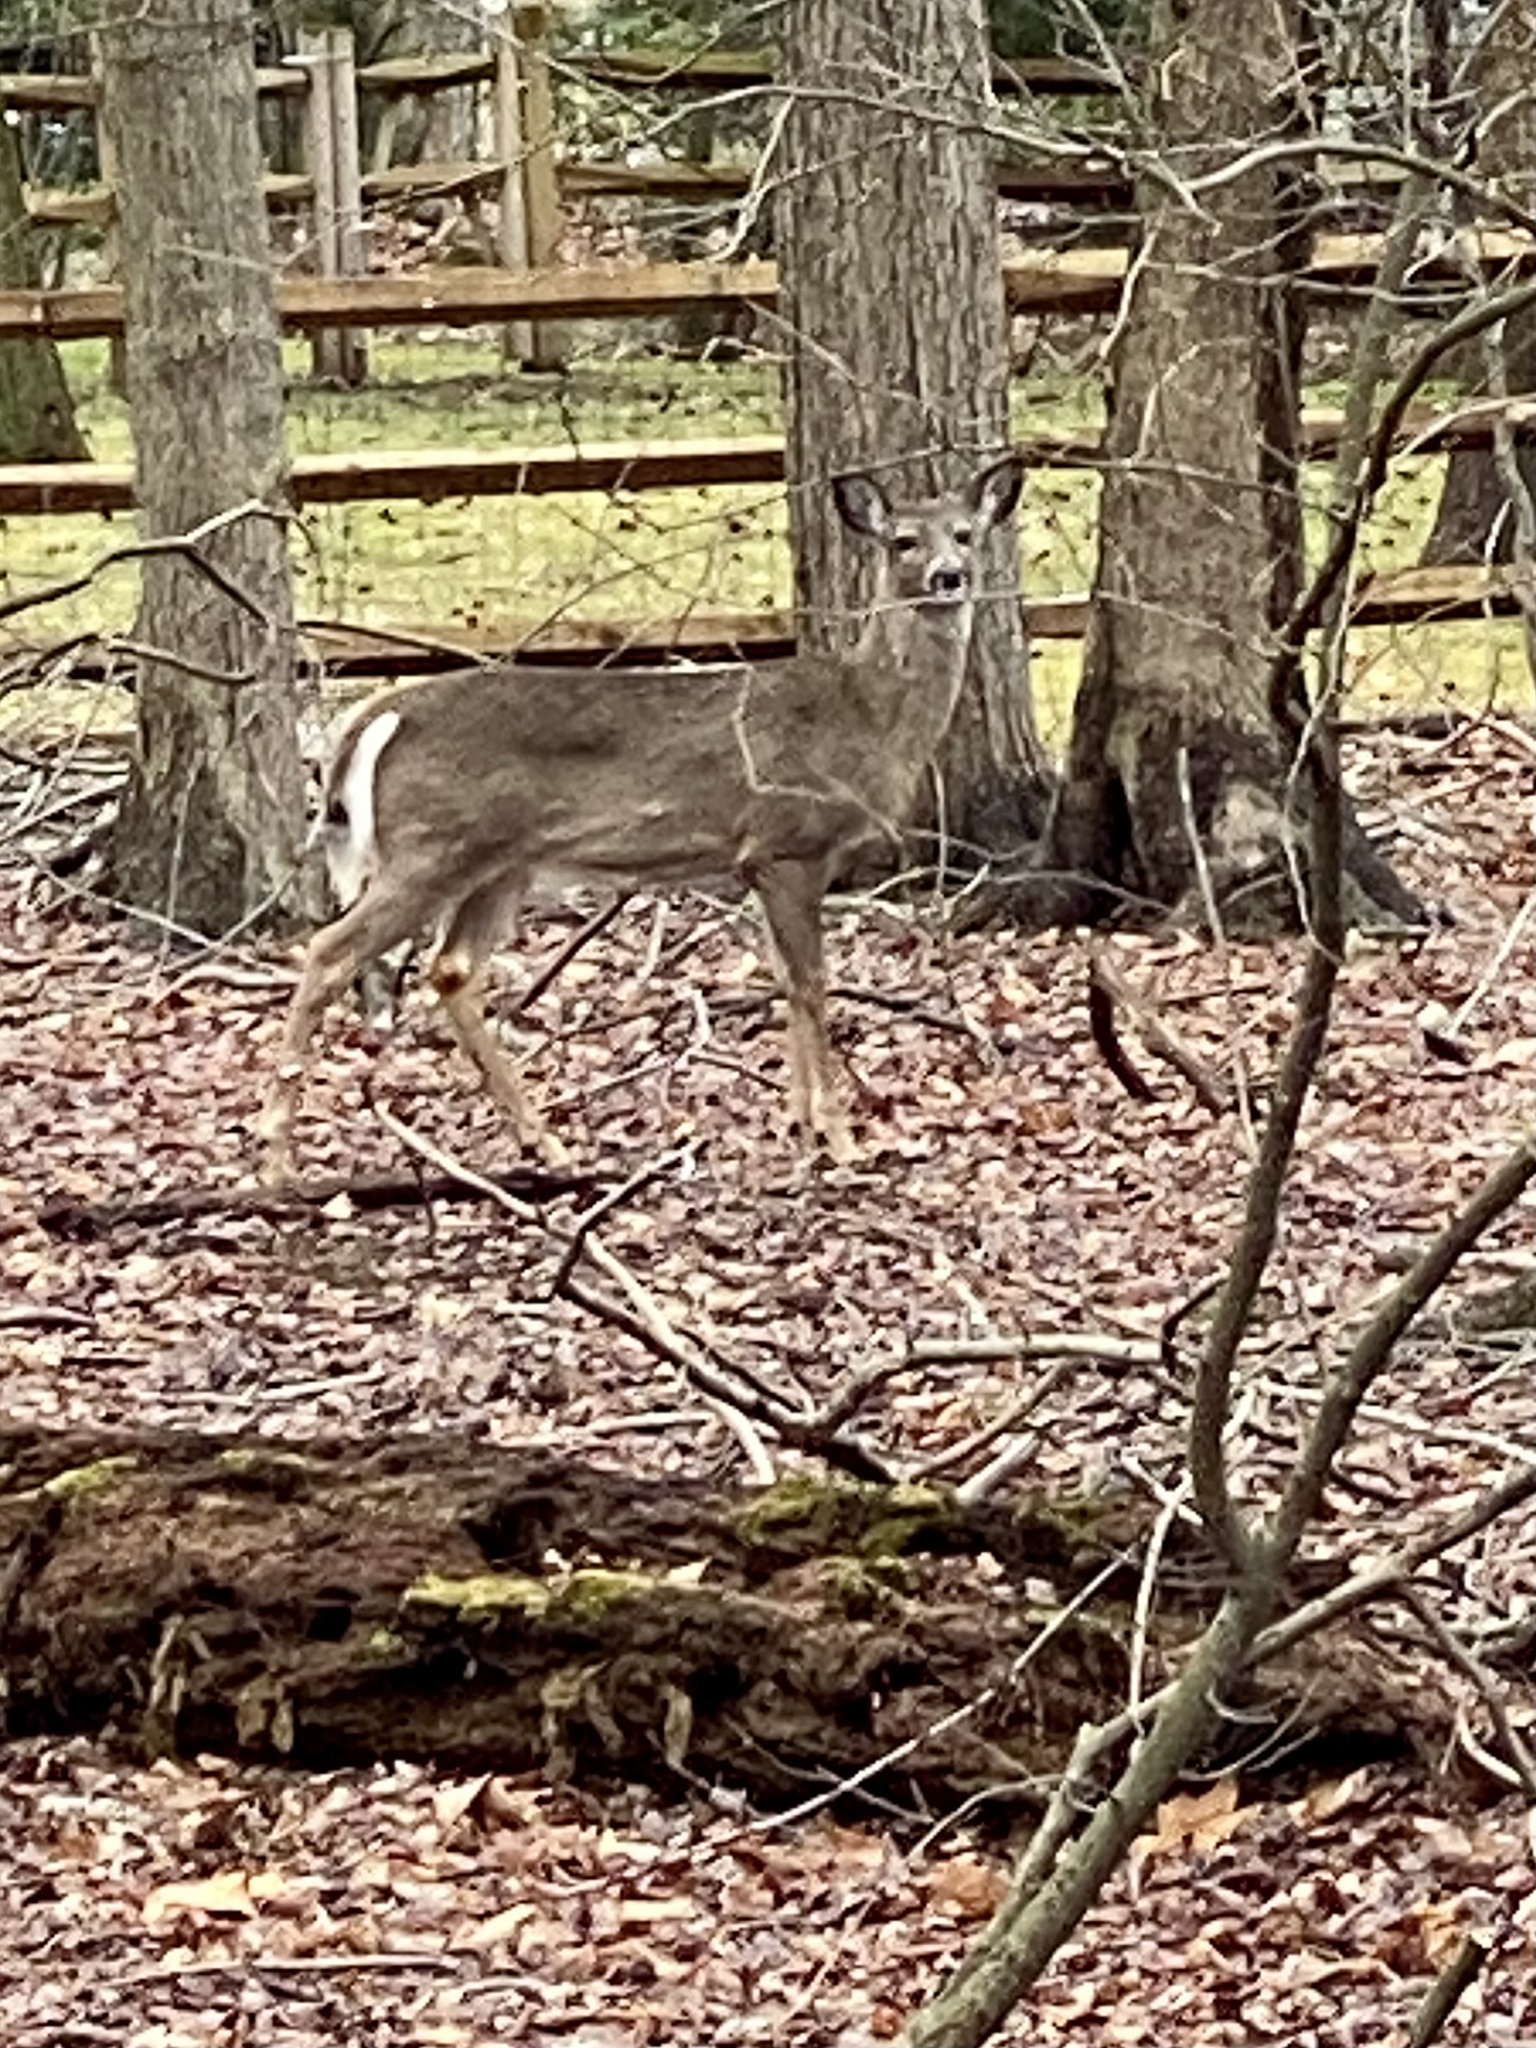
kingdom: Animalia
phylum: Chordata
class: Mammalia
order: Artiodactyla
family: Cervidae
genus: Odocoileus
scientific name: Odocoileus virginianus
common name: White-tailed deer
